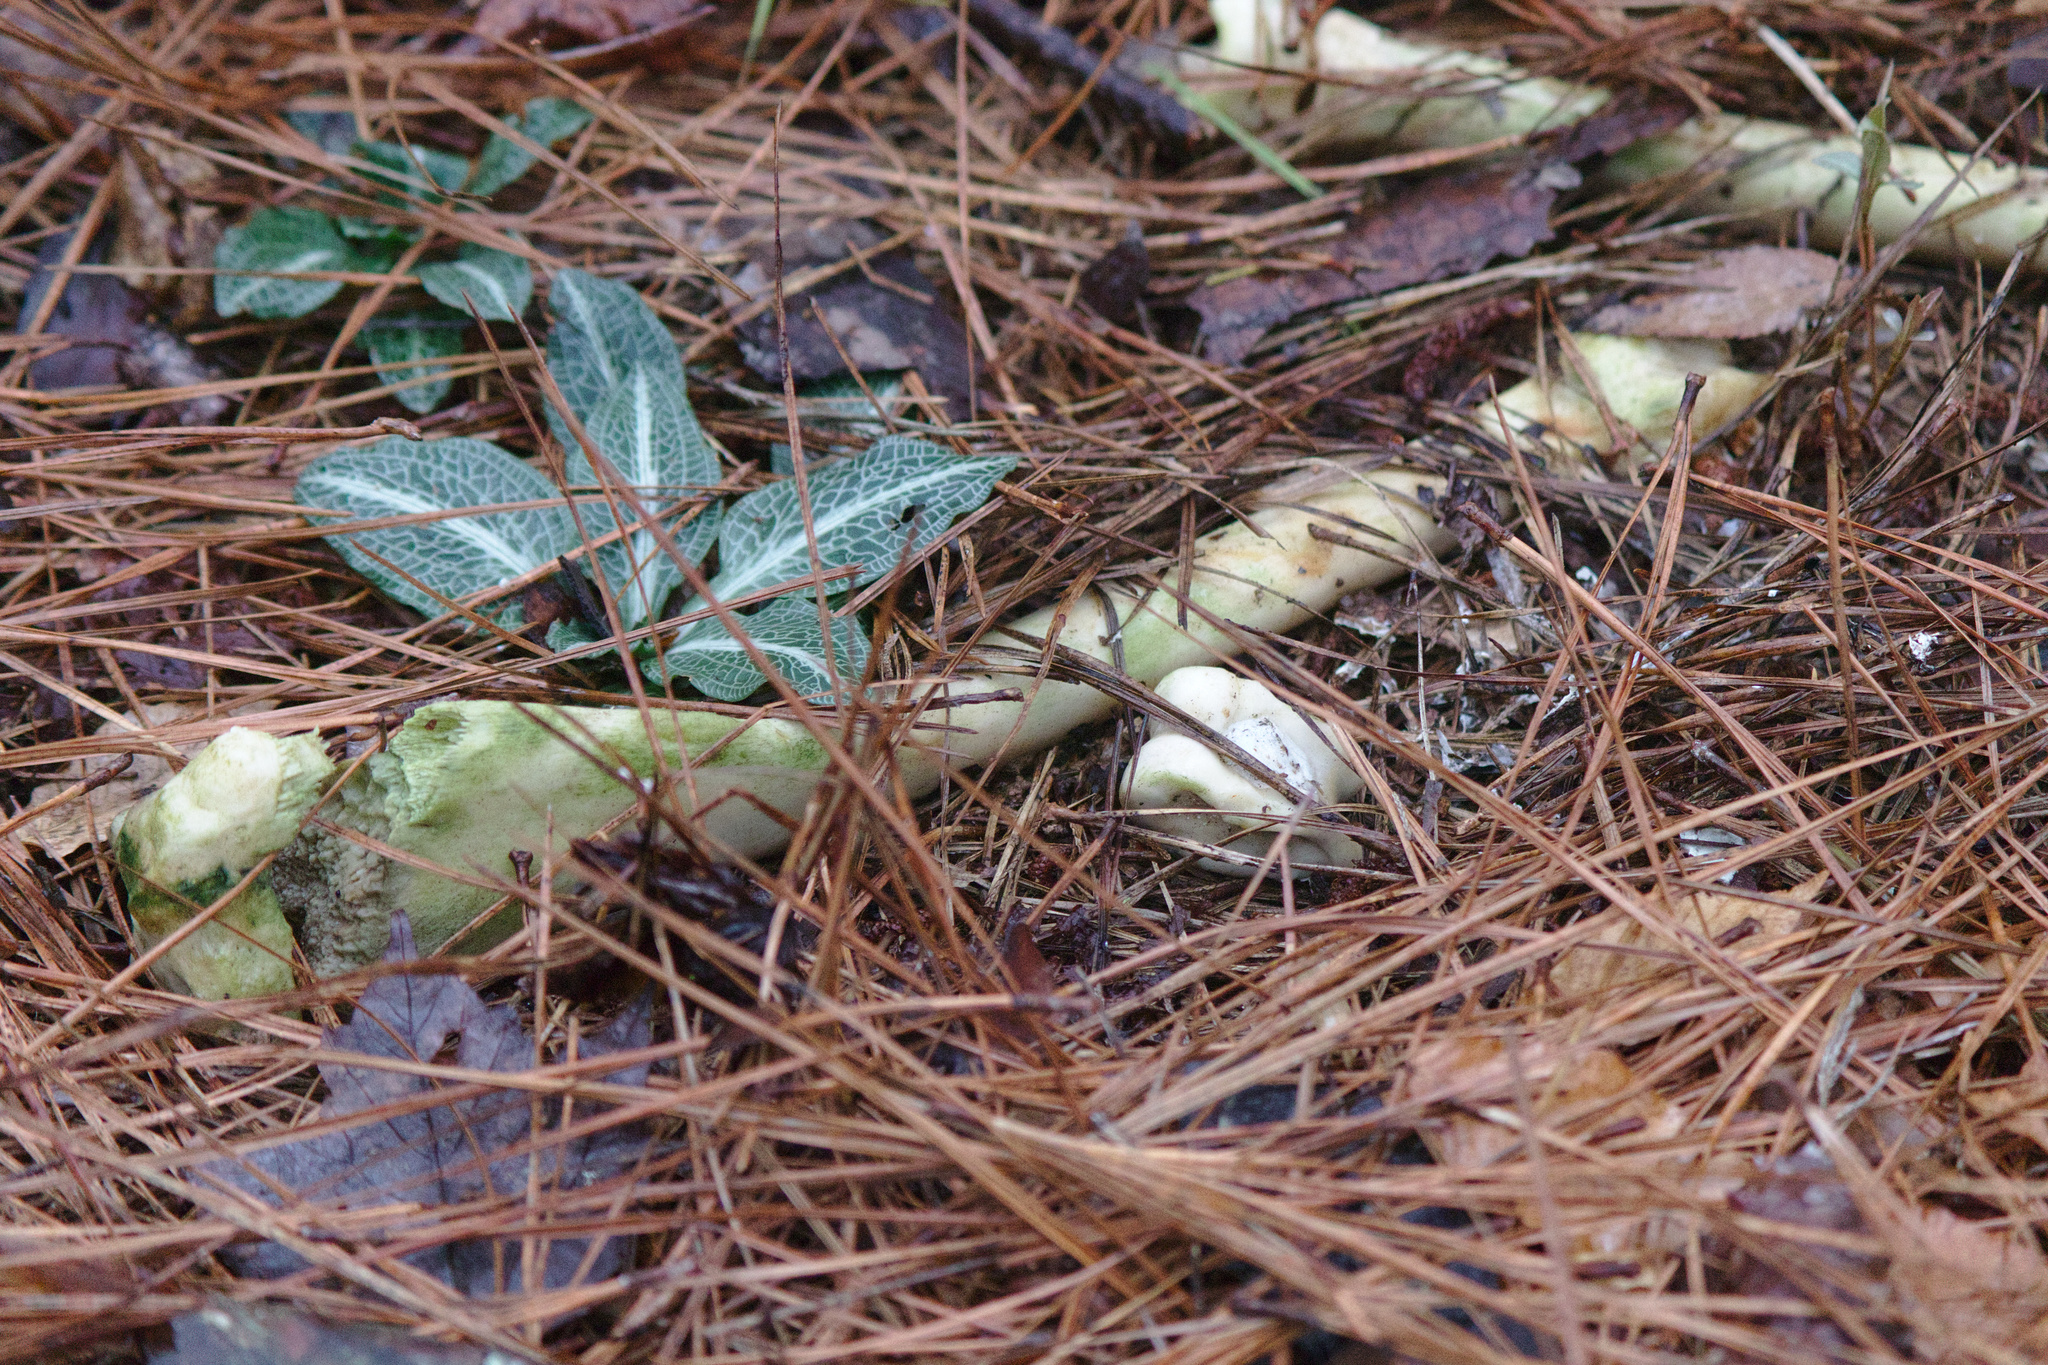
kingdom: Animalia
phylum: Chordata
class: Mammalia
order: Artiodactyla
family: Cervidae
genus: Odocoileus
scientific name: Odocoileus virginianus
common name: White-tailed deer
